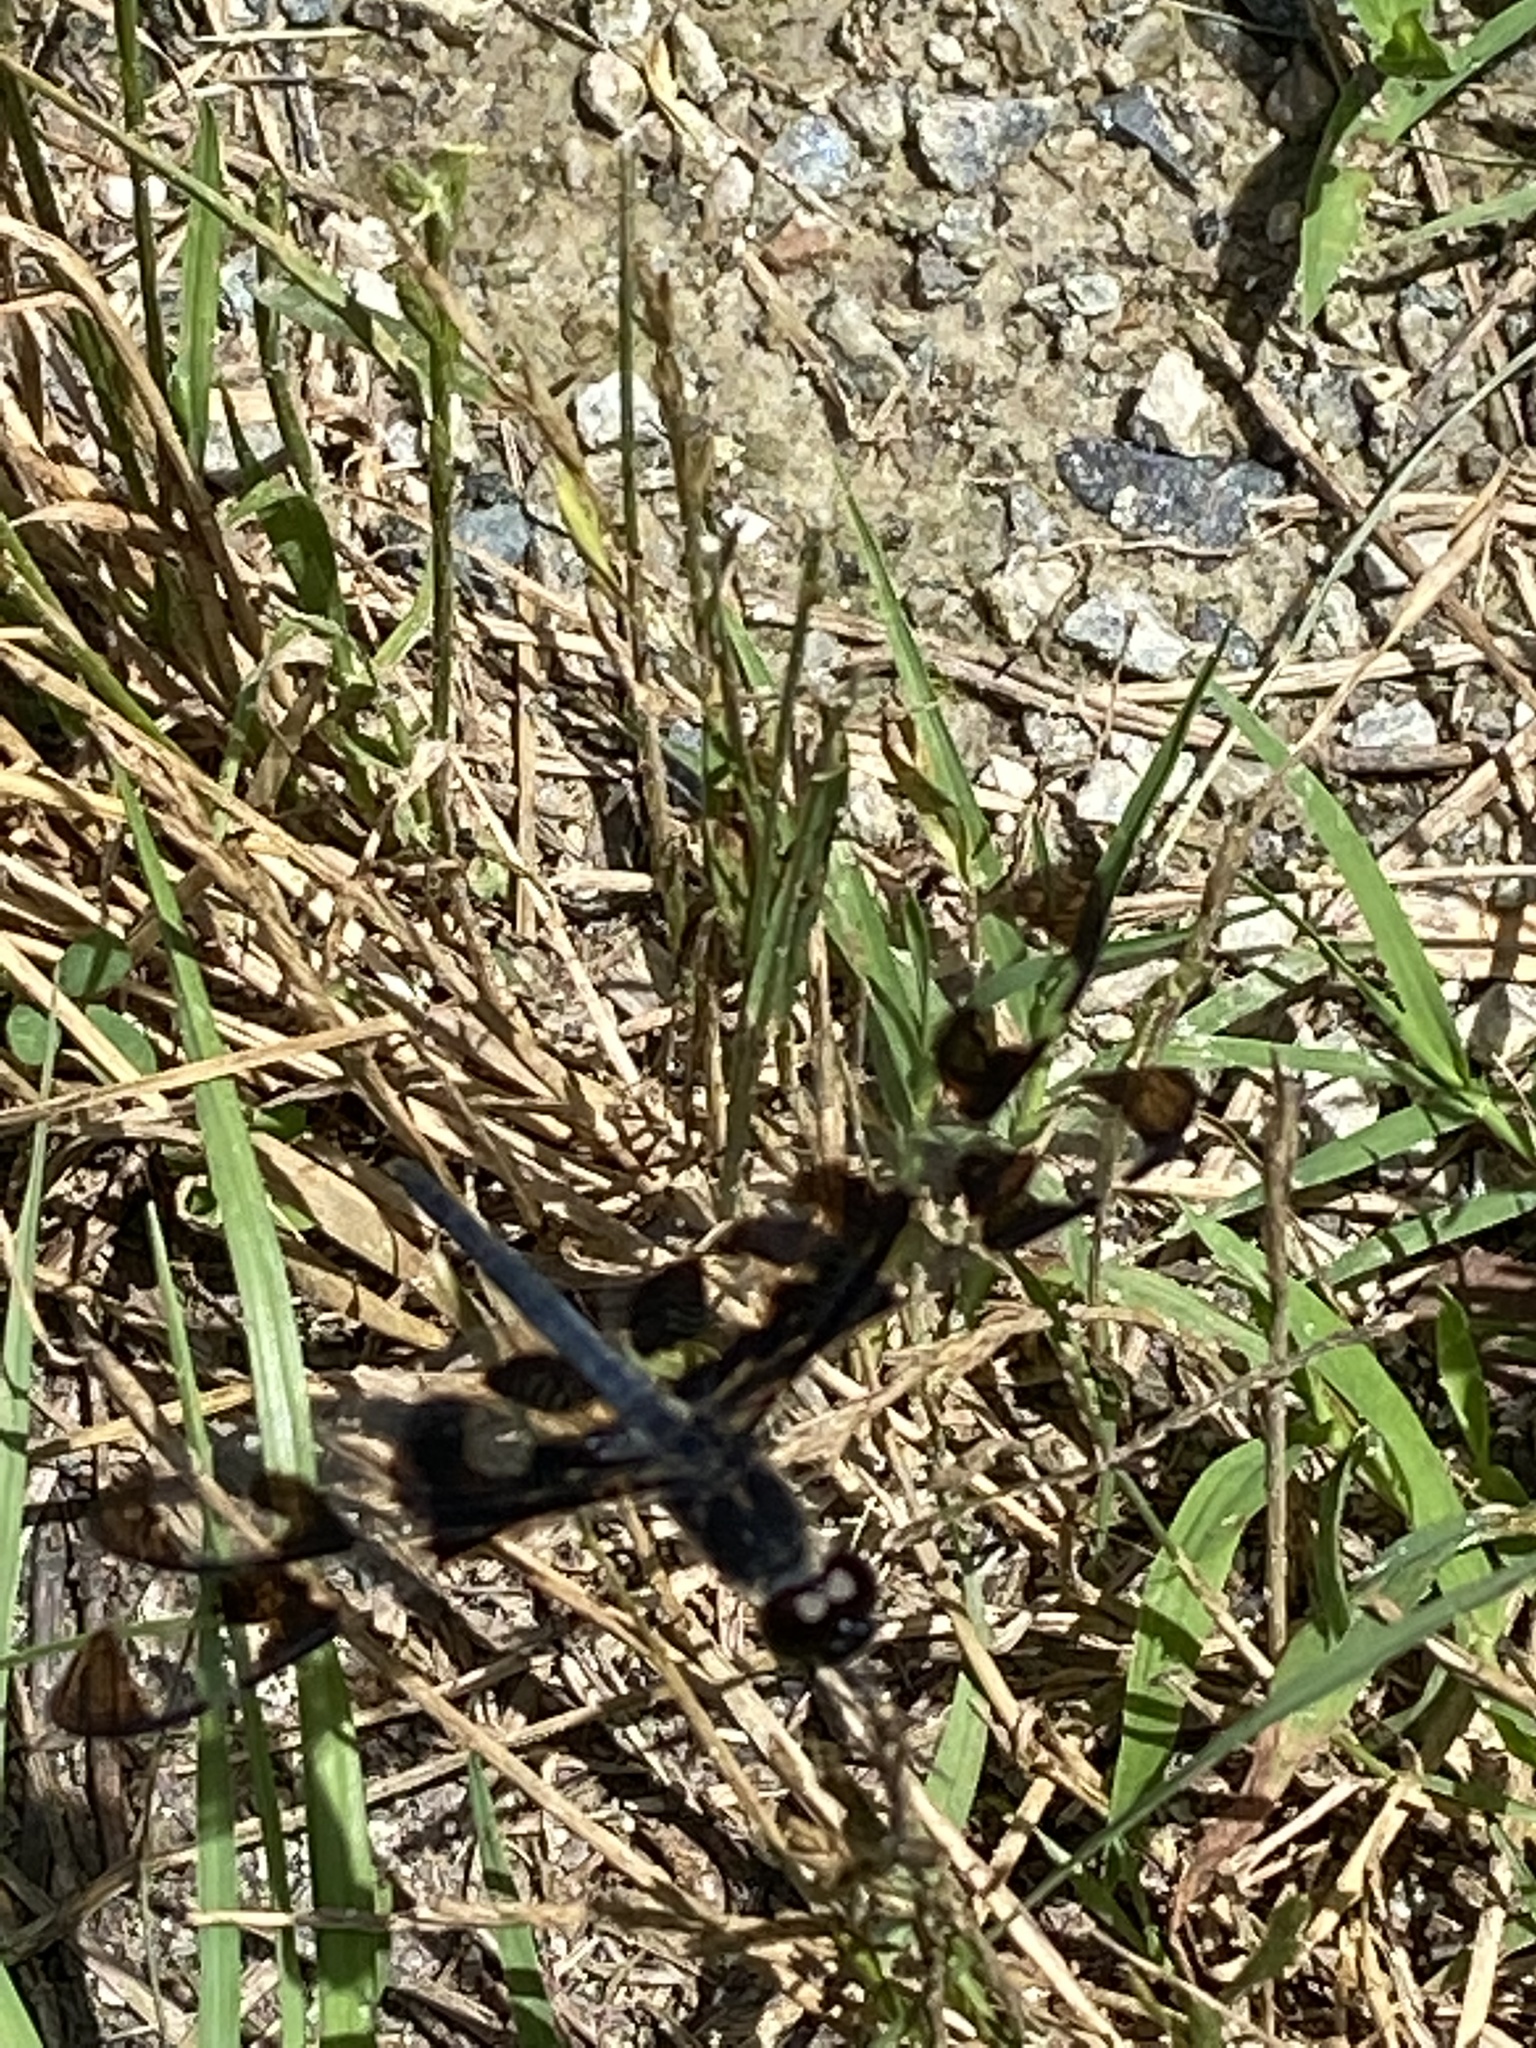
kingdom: Animalia
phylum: Arthropoda
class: Insecta
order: Odonata
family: Libellulidae
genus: Celithemis
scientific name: Celithemis fasciata
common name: Banded pennant
